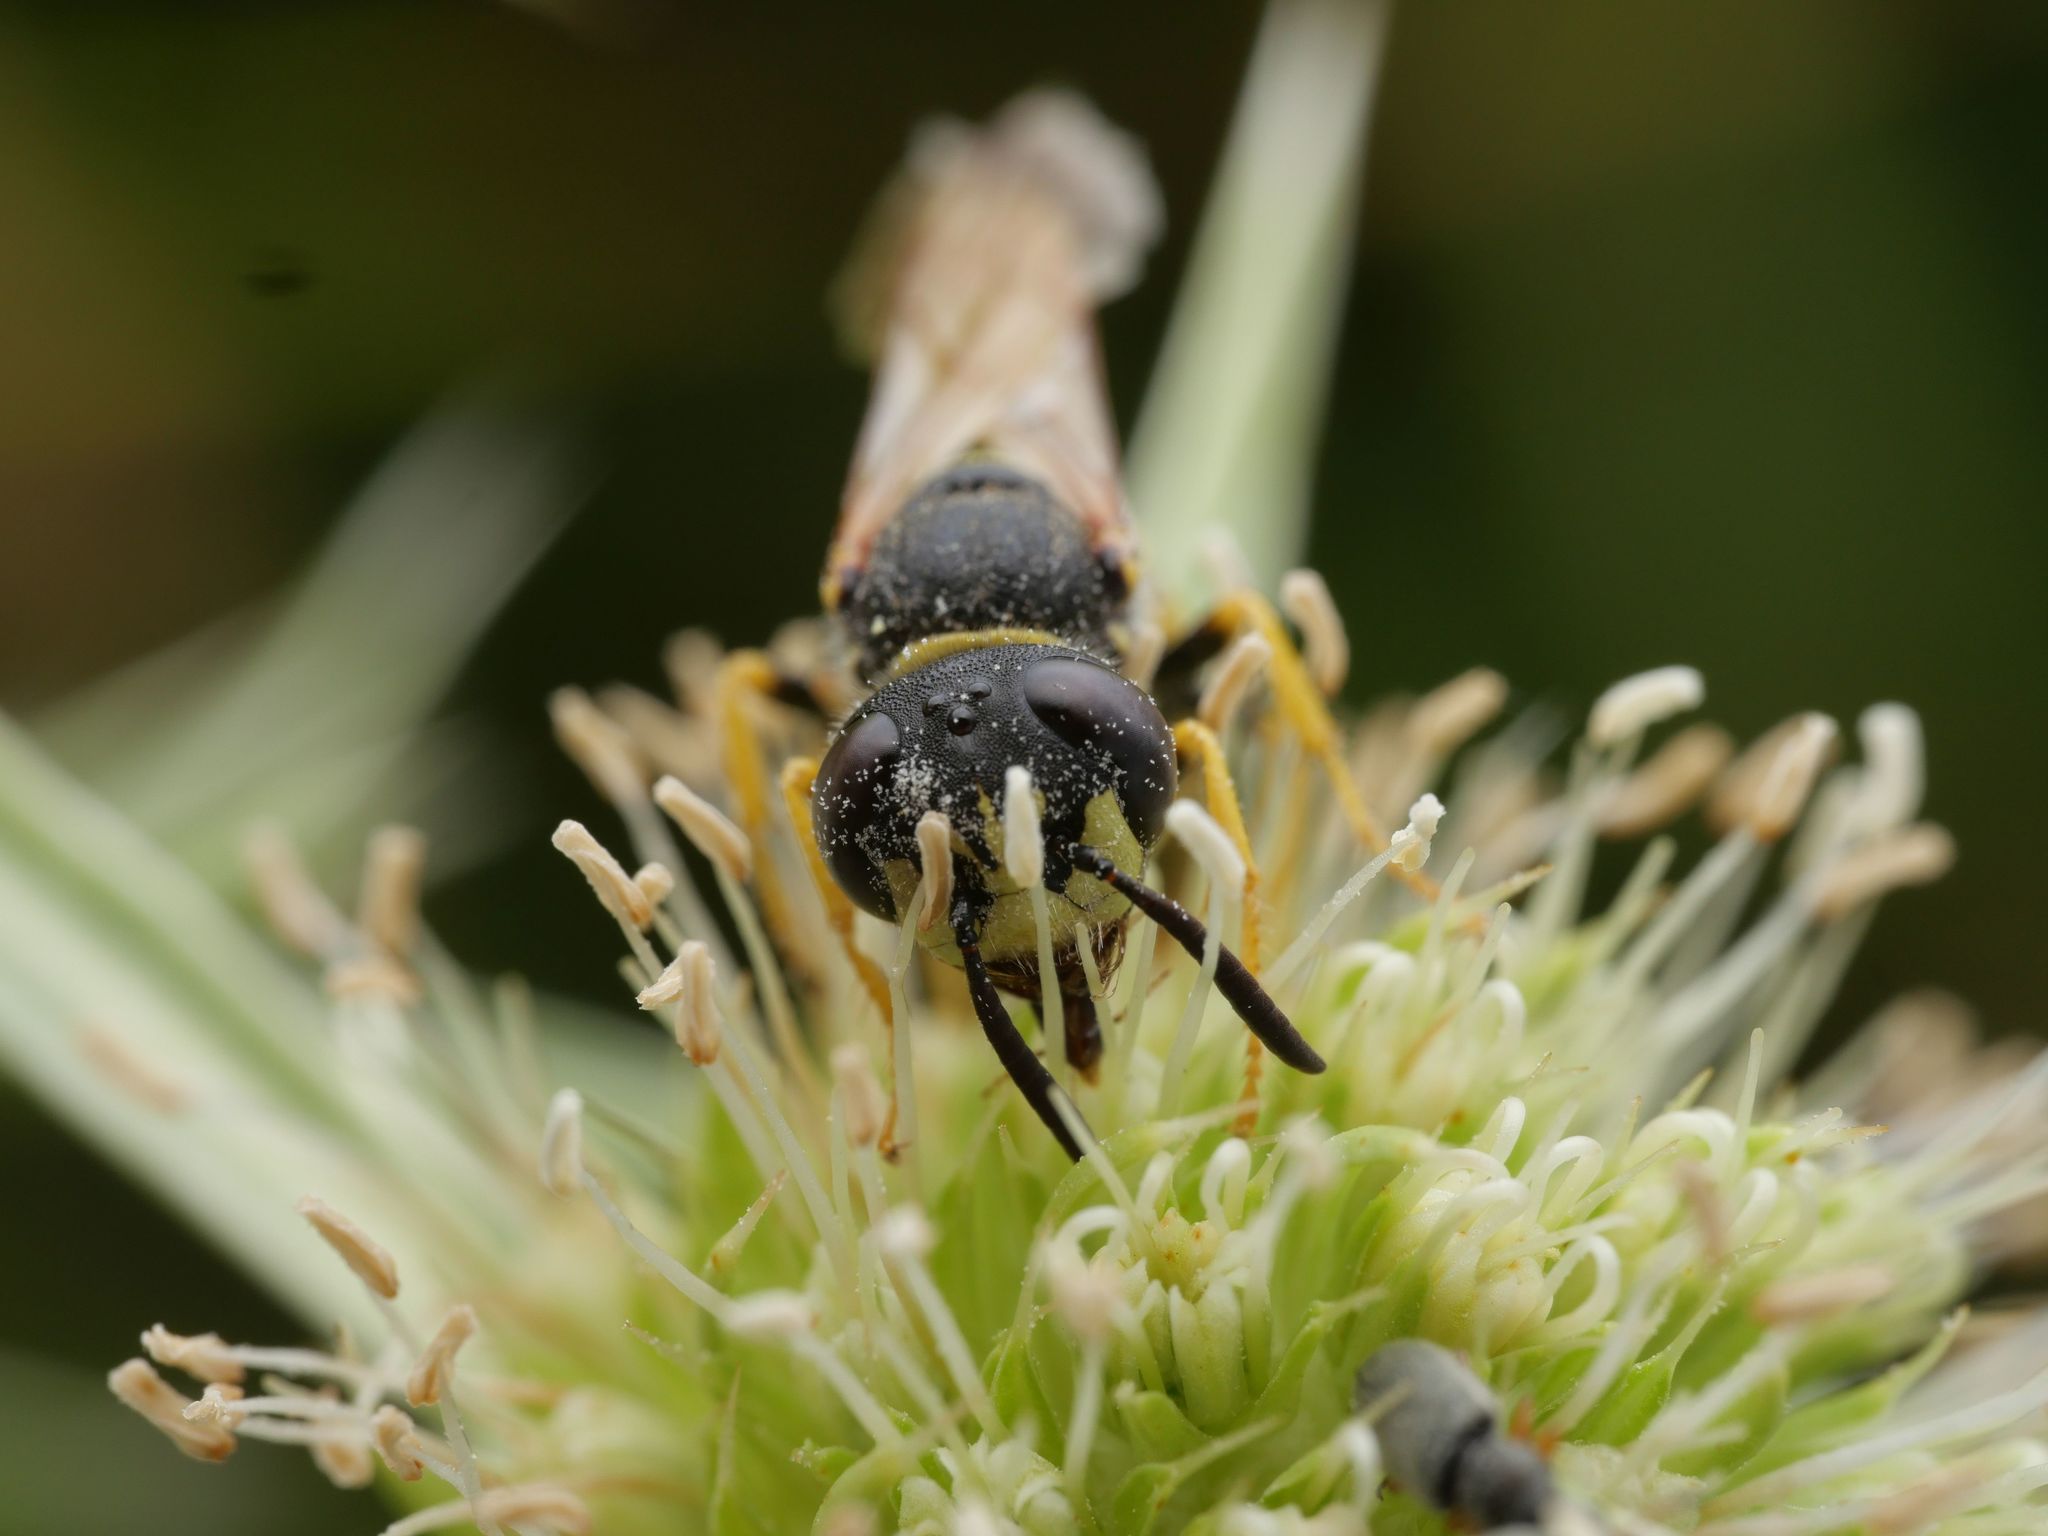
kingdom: Animalia
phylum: Arthropoda
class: Insecta
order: Hymenoptera
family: Crabronidae
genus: Philanthus
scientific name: Philanthus triangulum
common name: Bee wolf
